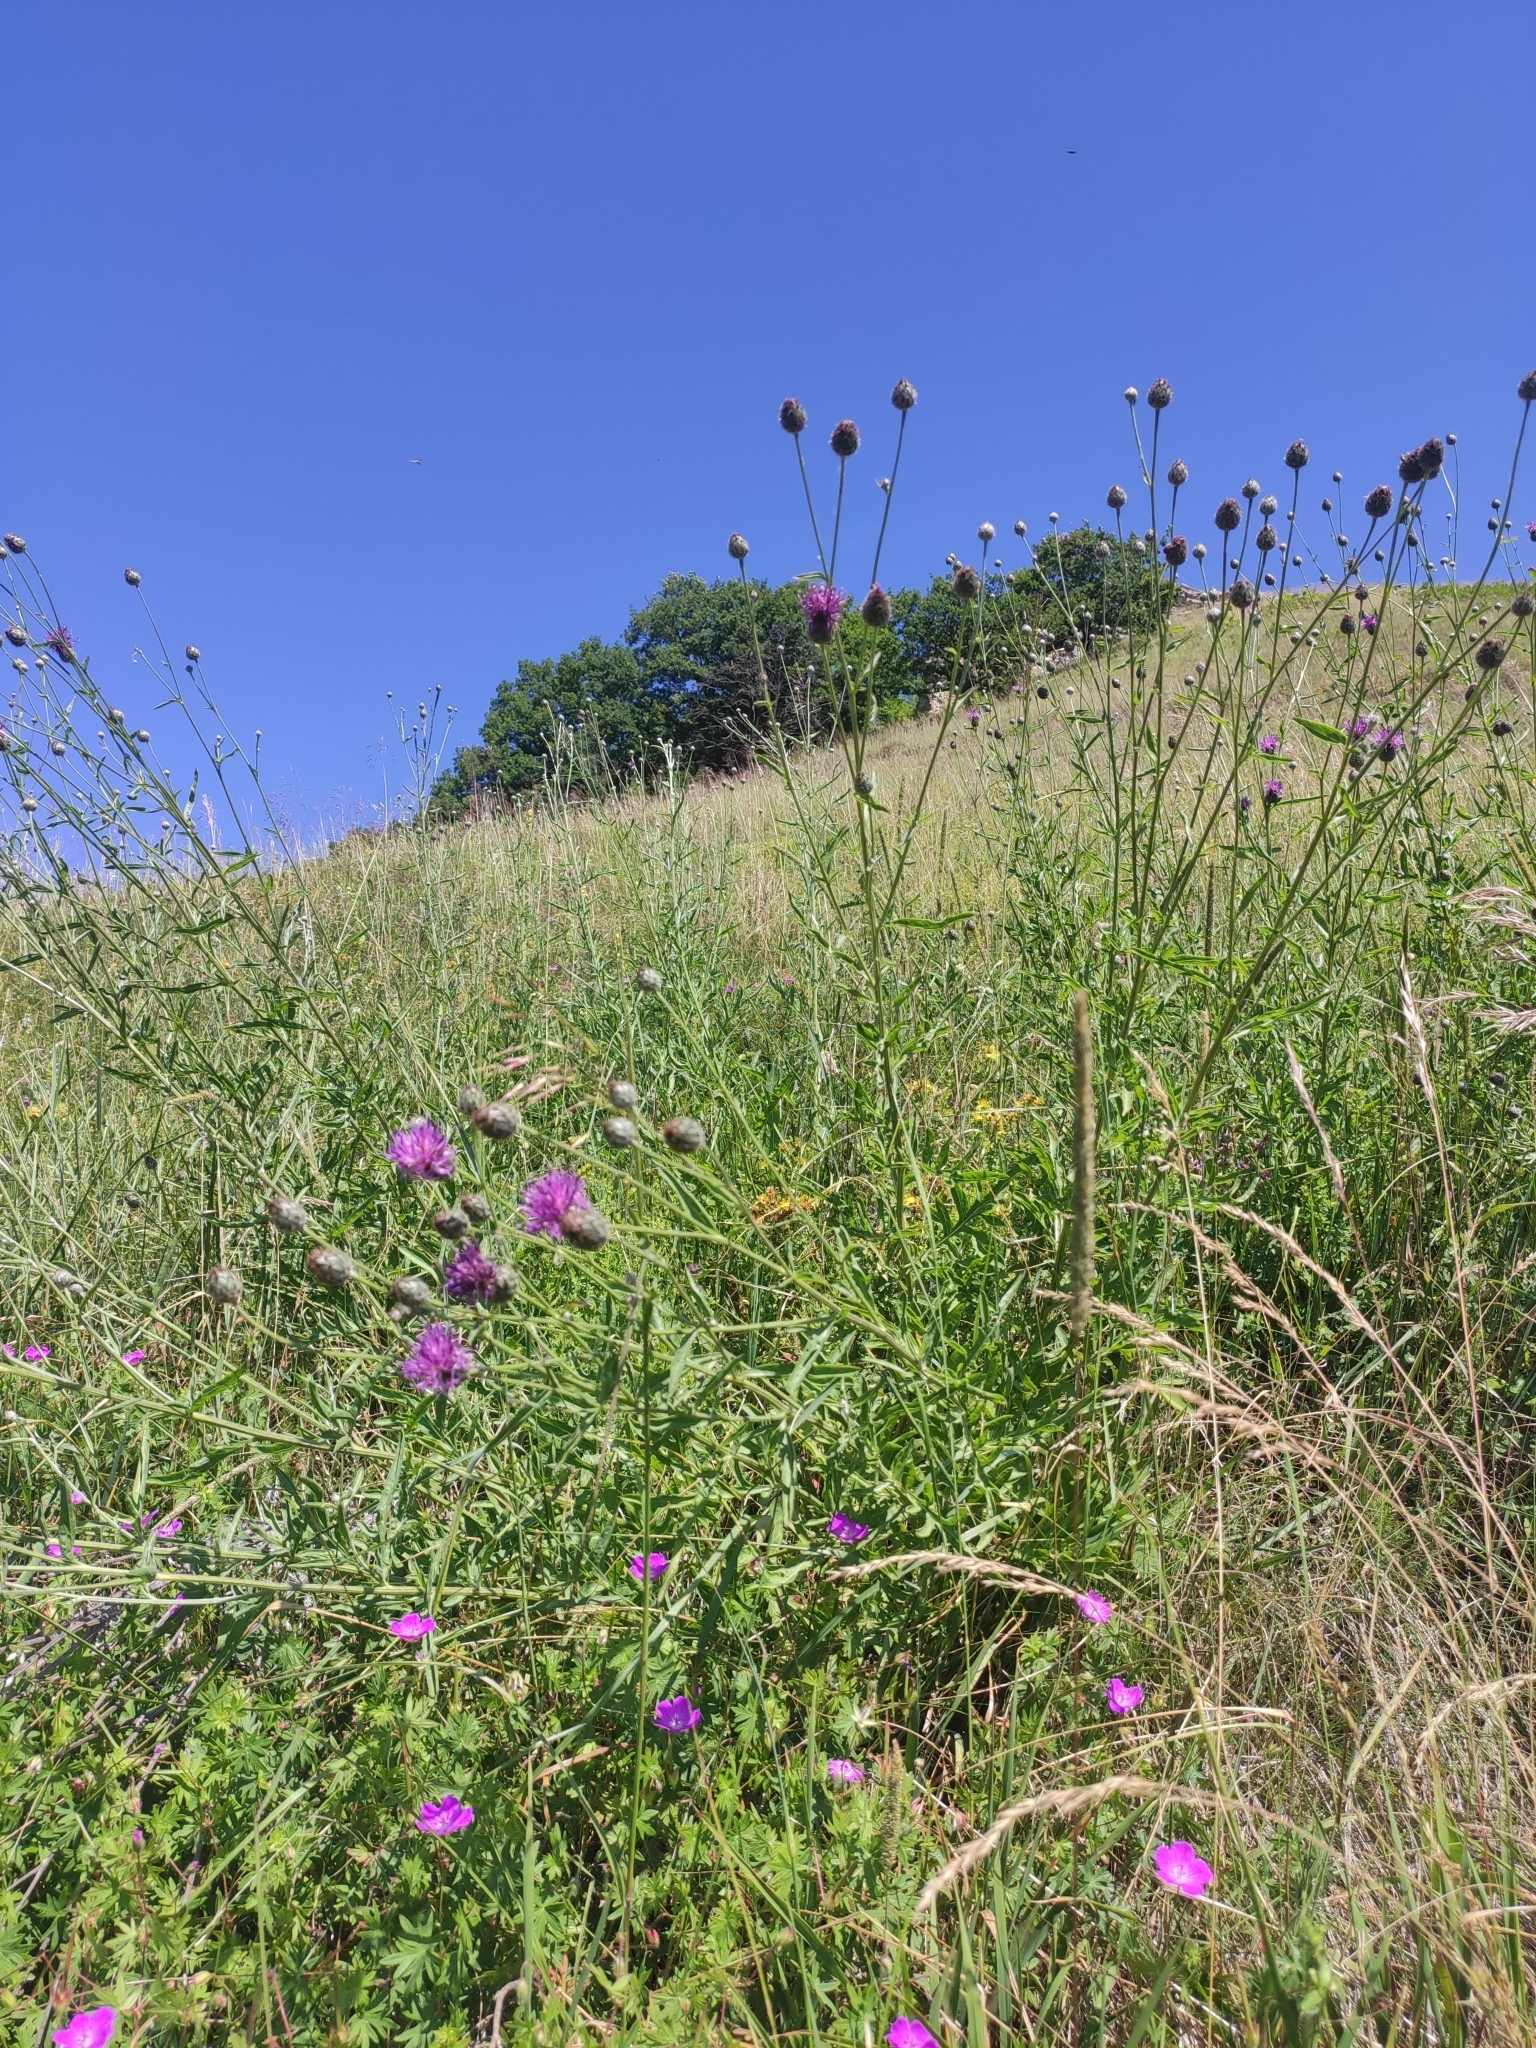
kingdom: Plantae
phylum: Tracheophyta
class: Magnoliopsida
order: Asterales
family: Asteraceae
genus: Centaurea
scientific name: Centaurea scabiosa
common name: Greater knapweed
